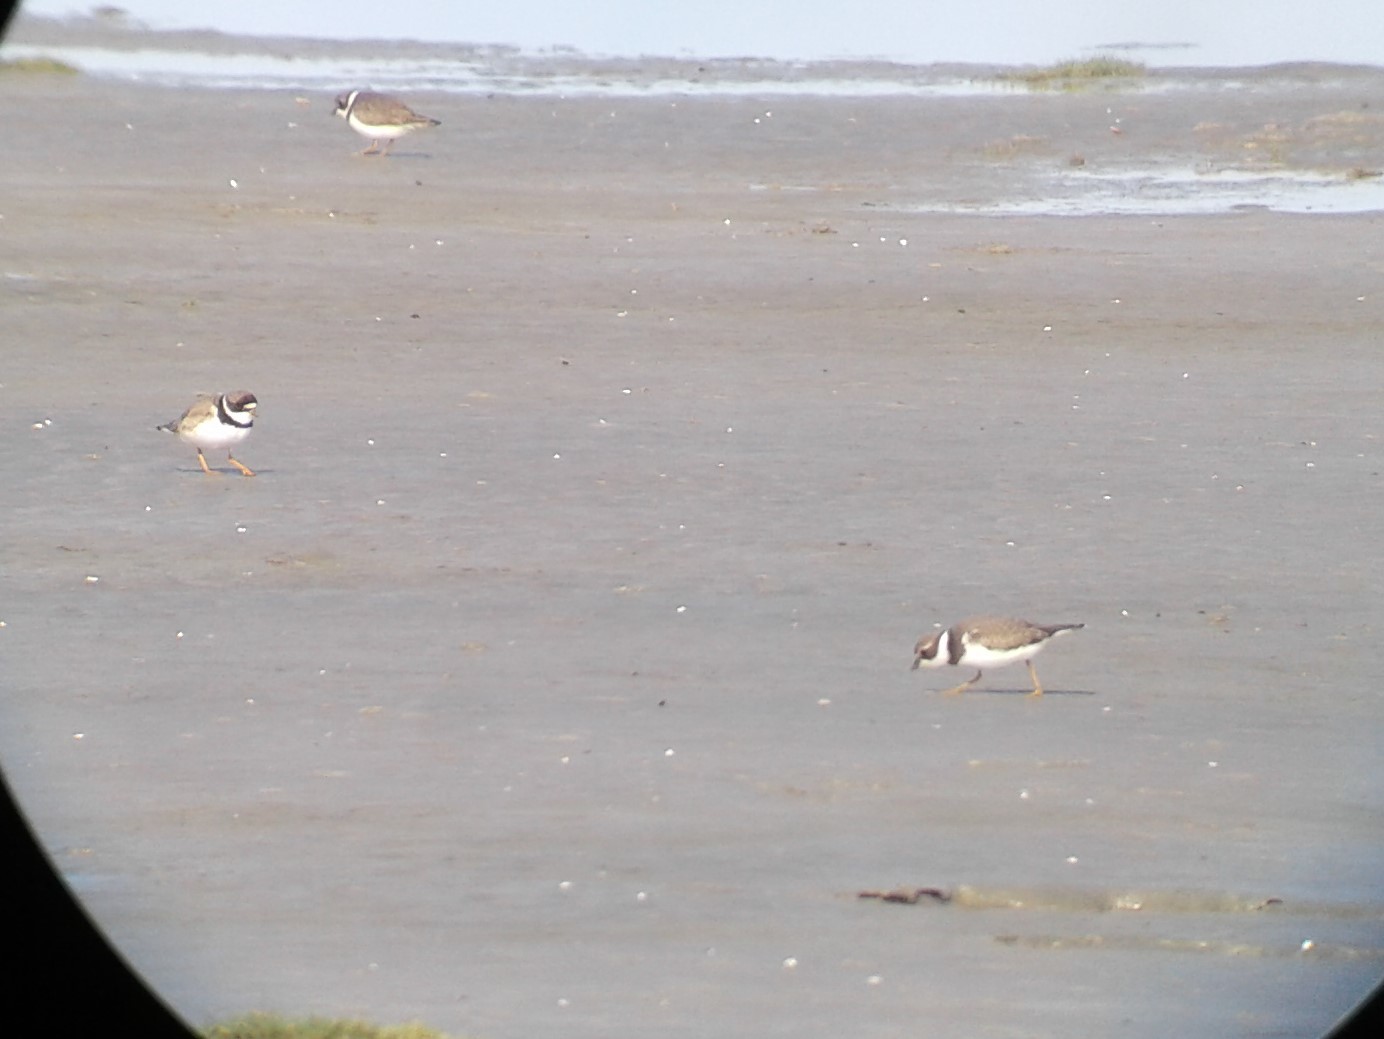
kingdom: Animalia
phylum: Chordata
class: Aves
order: Charadriiformes
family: Charadriidae
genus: Charadrius
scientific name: Charadrius semipalmatus
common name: Semipalmated plover
